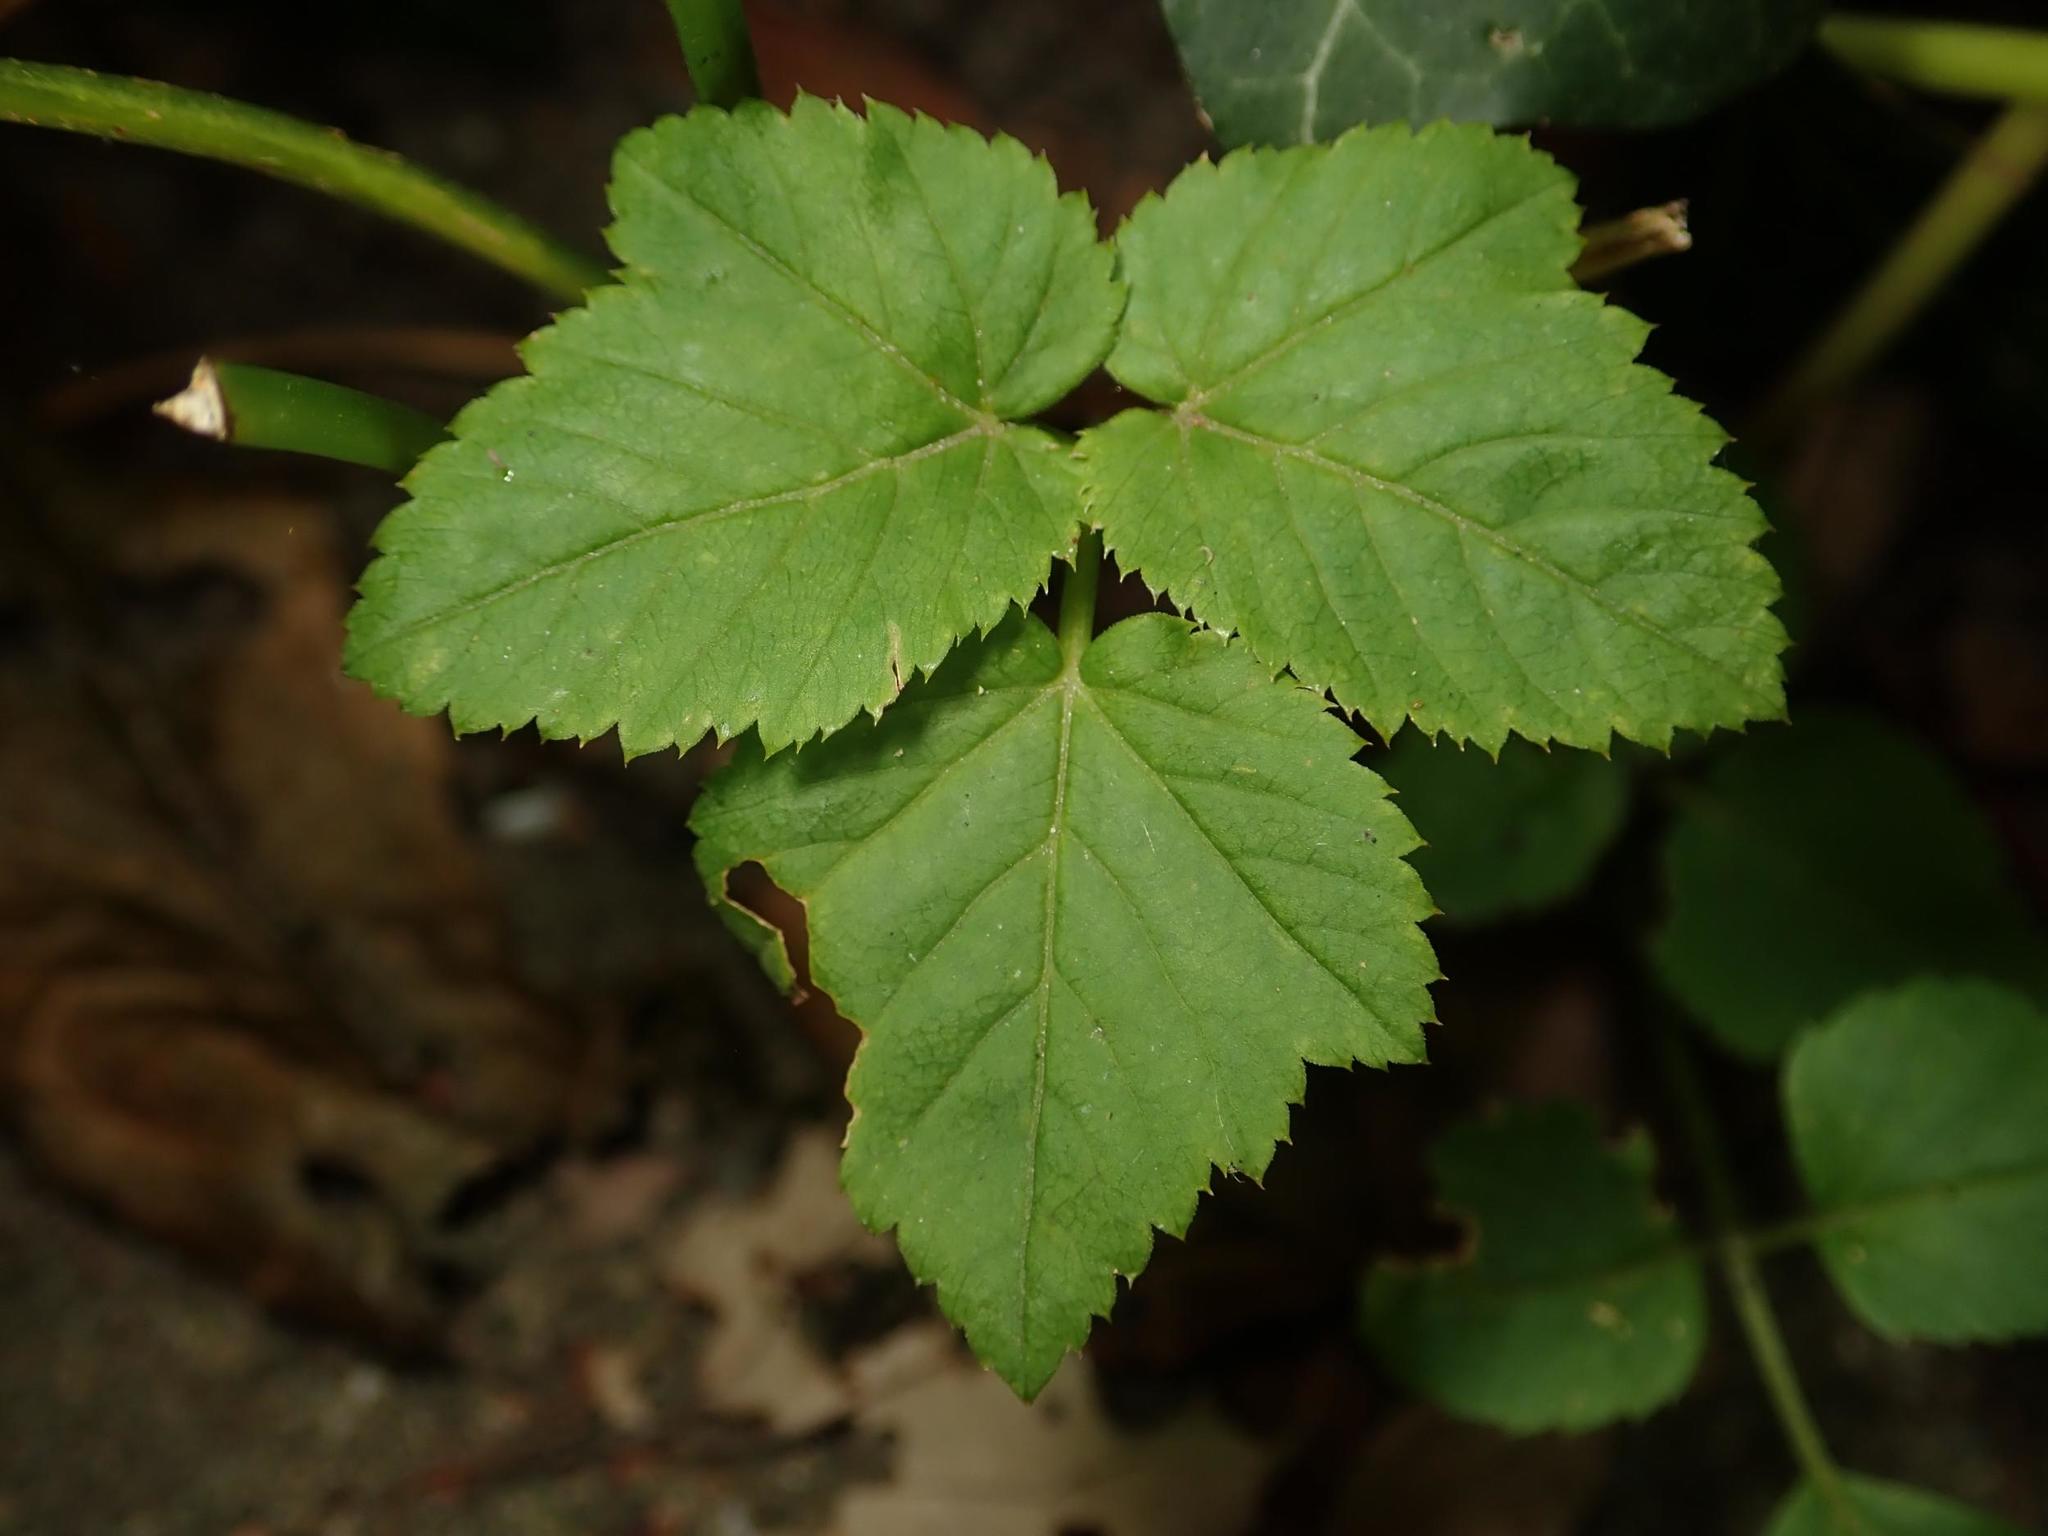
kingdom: Plantae
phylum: Tracheophyta
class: Magnoliopsida
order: Apiales
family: Apiaceae
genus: Aegopodium
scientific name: Aegopodium podagraria
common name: Ground-elder
